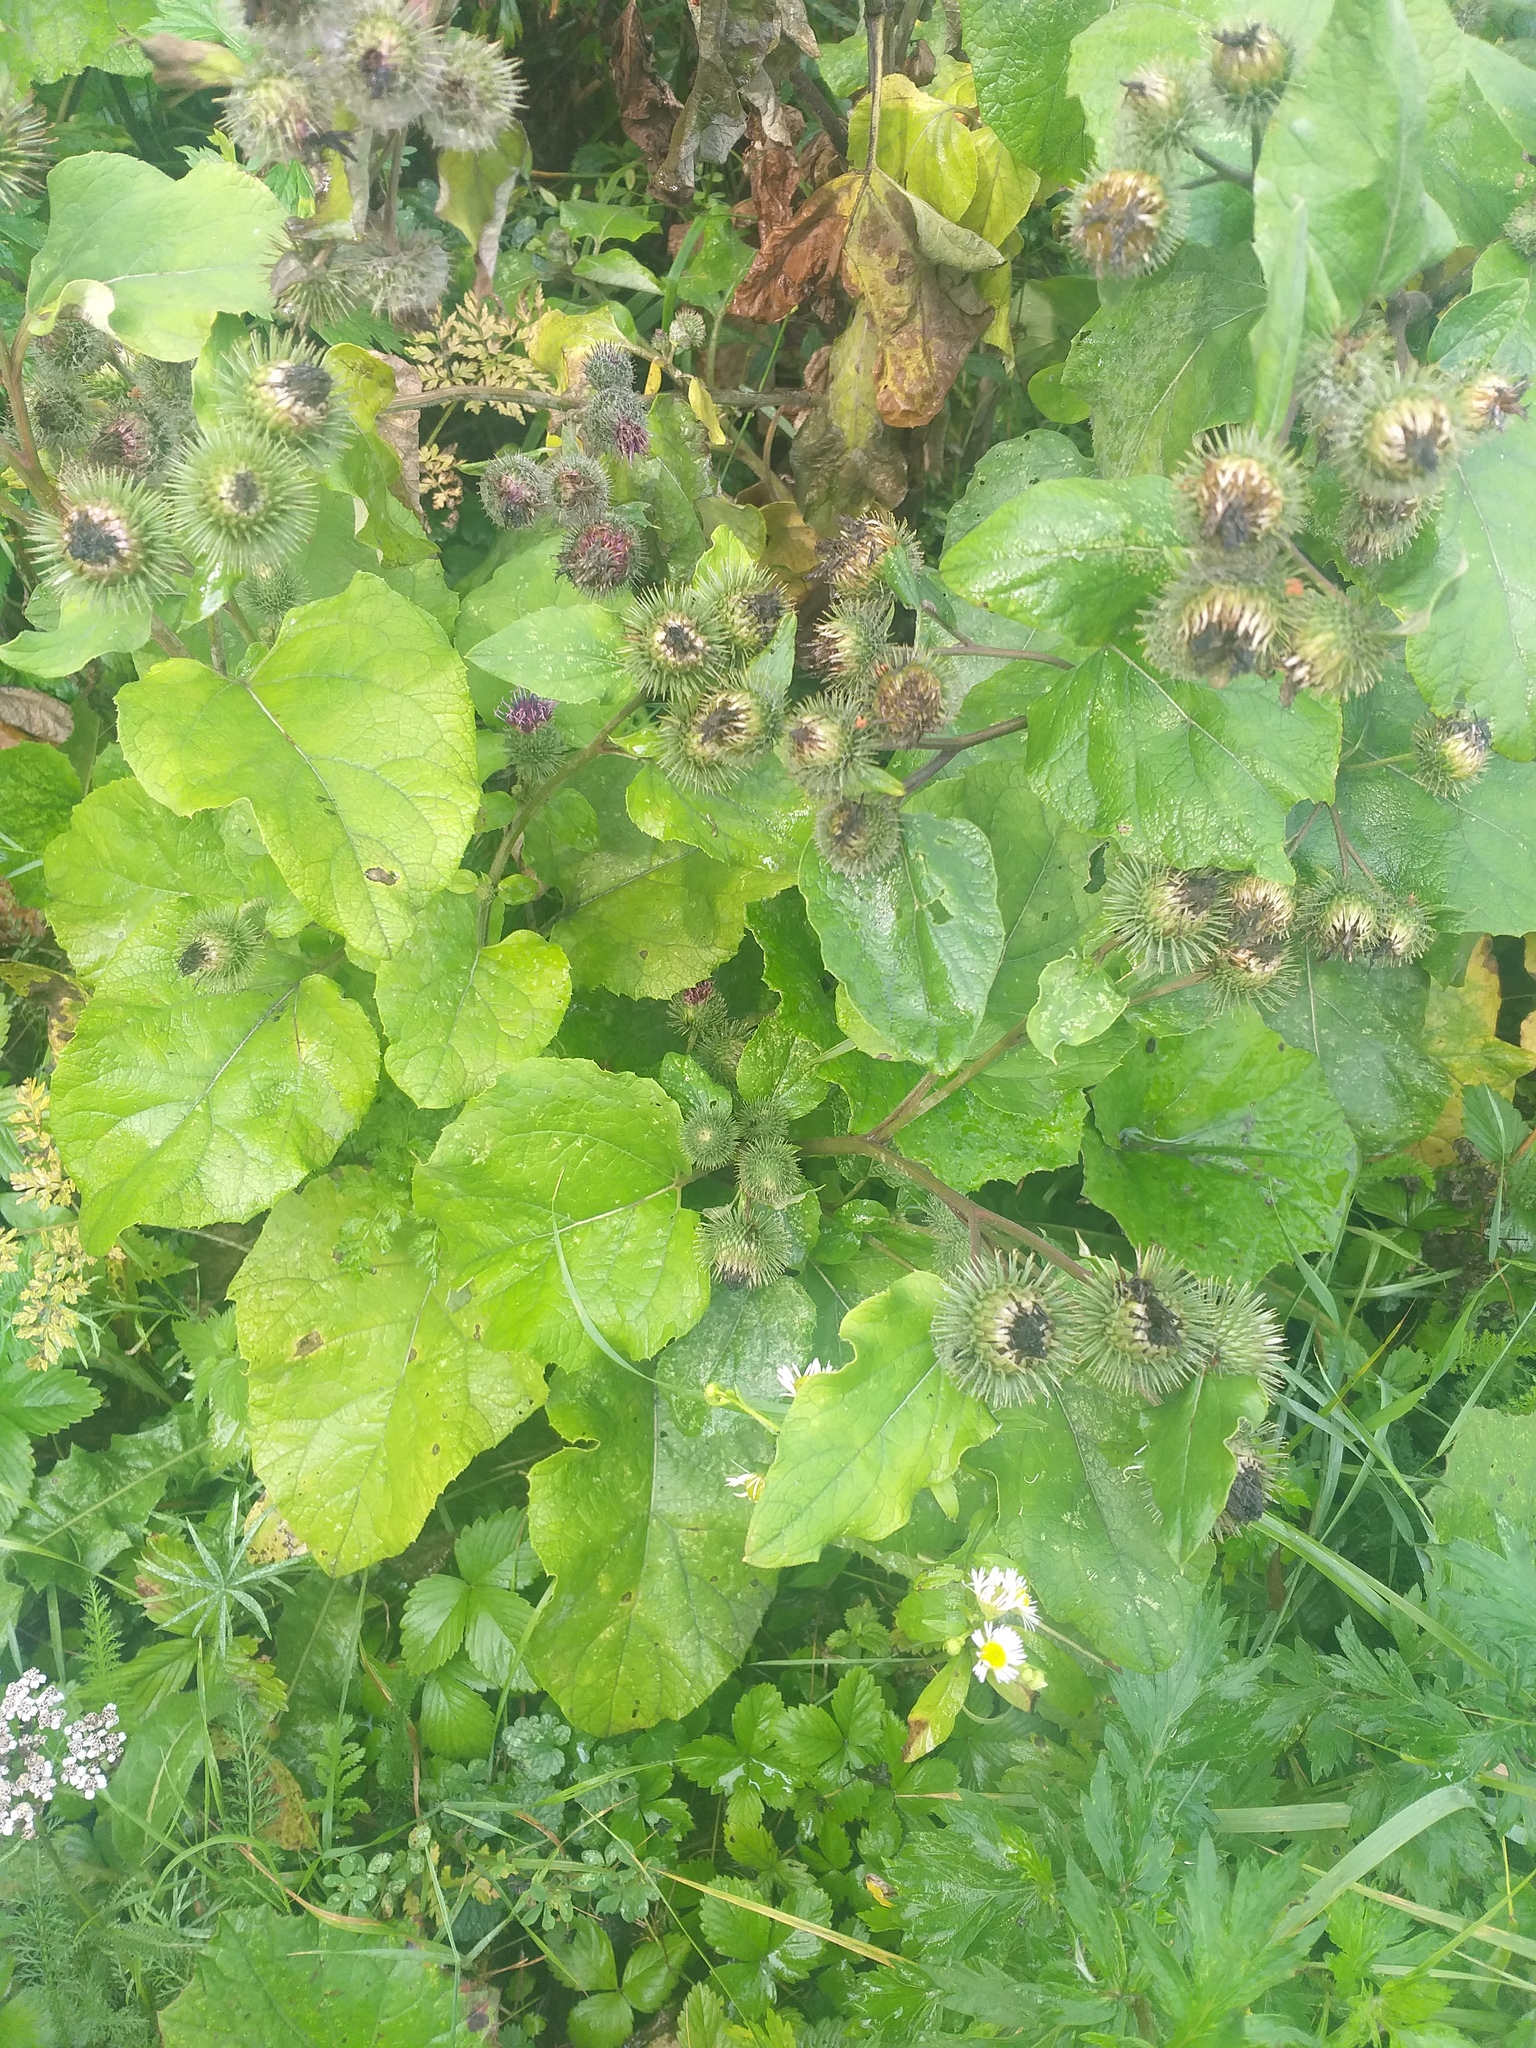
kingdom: Plantae
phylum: Tracheophyta
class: Magnoliopsida
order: Asterales
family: Asteraceae
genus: Arctium
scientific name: Arctium lappa
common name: Greater burdock
